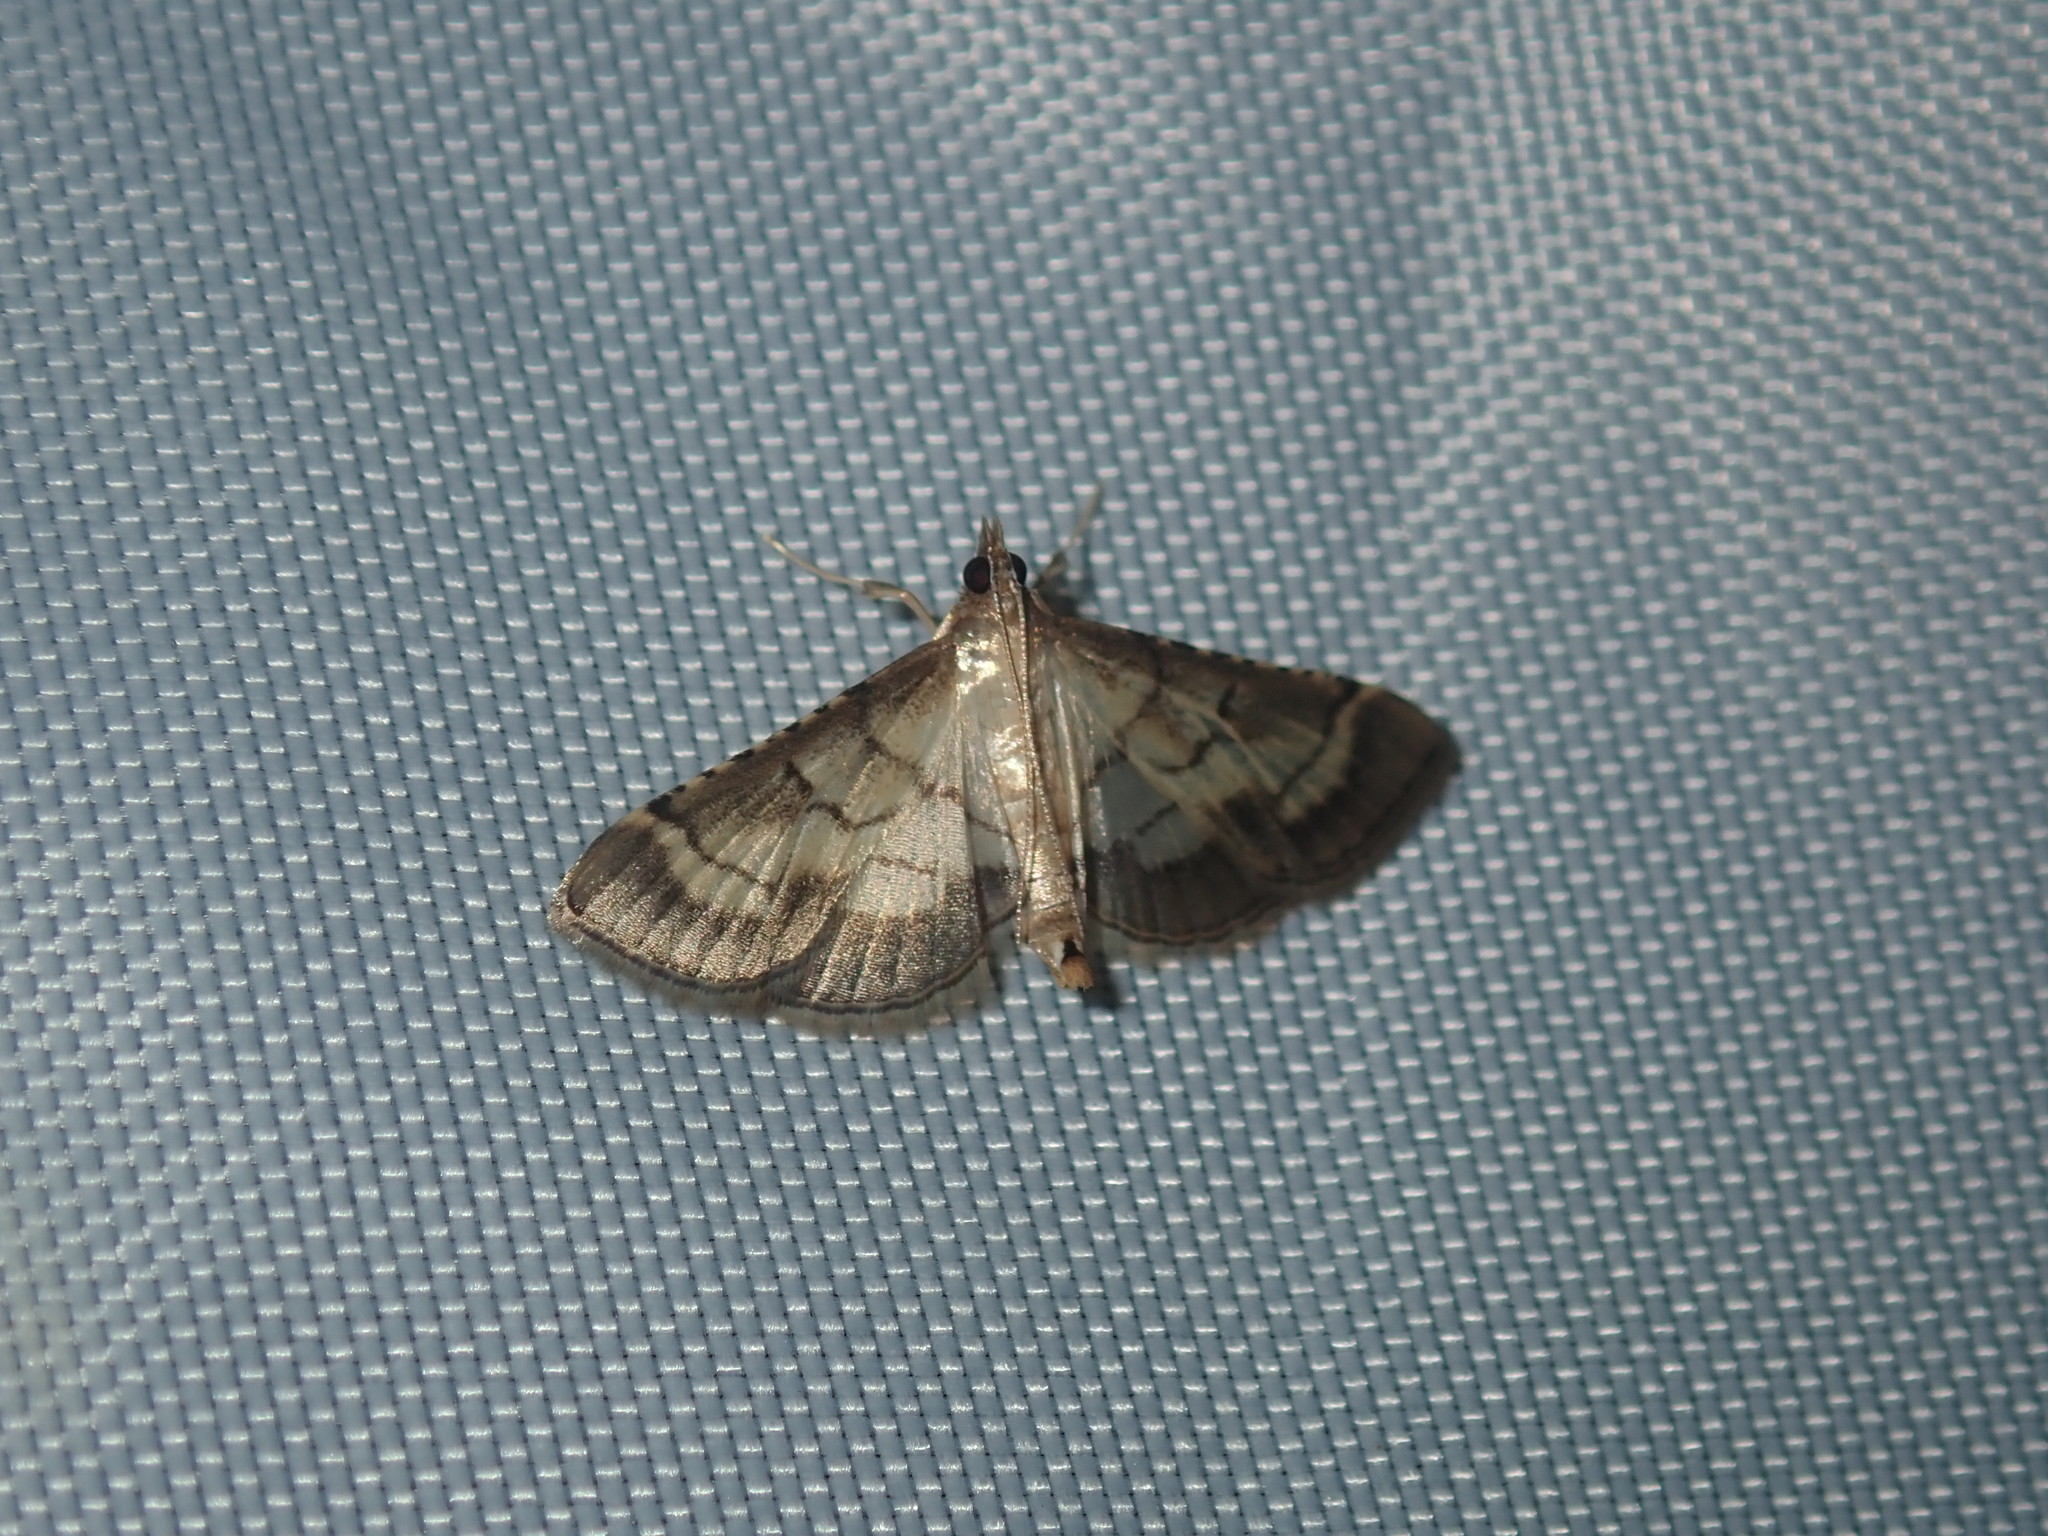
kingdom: Animalia
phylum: Arthropoda
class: Insecta
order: Lepidoptera
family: Crambidae
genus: Cnaphalocrocis
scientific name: Cnaphalocrocis poeyalis
